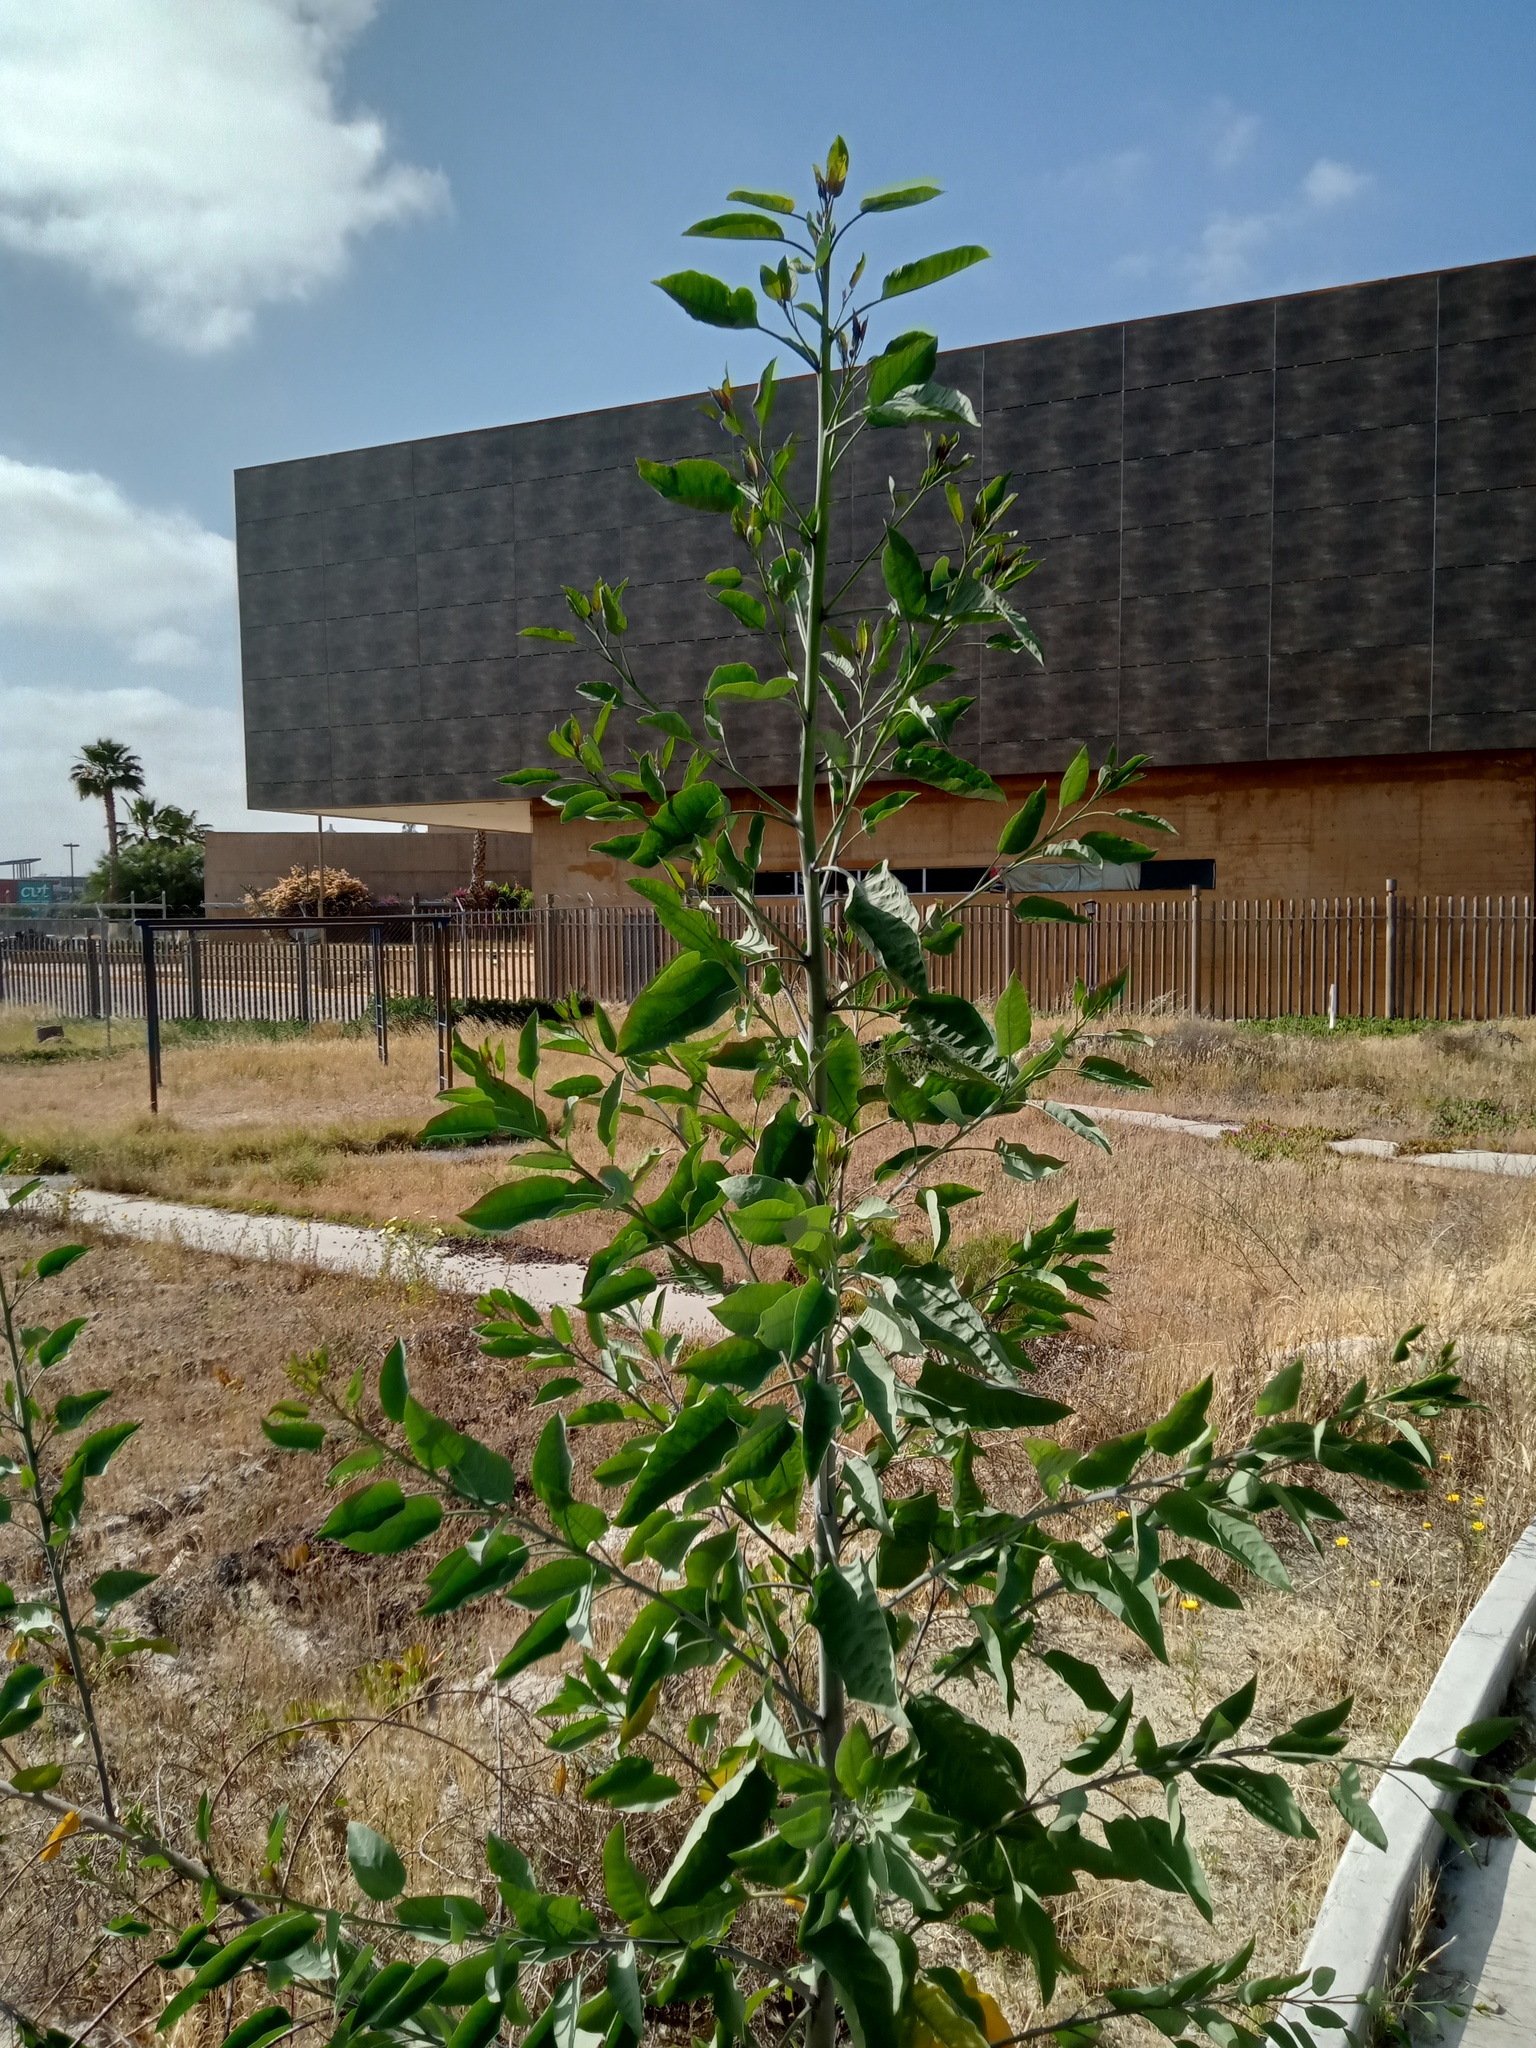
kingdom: Plantae
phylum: Tracheophyta
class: Magnoliopsida
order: Solanales
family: Solanaceae
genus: Nicotiana
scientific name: Nicotiana glauca
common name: Tree tobacco
